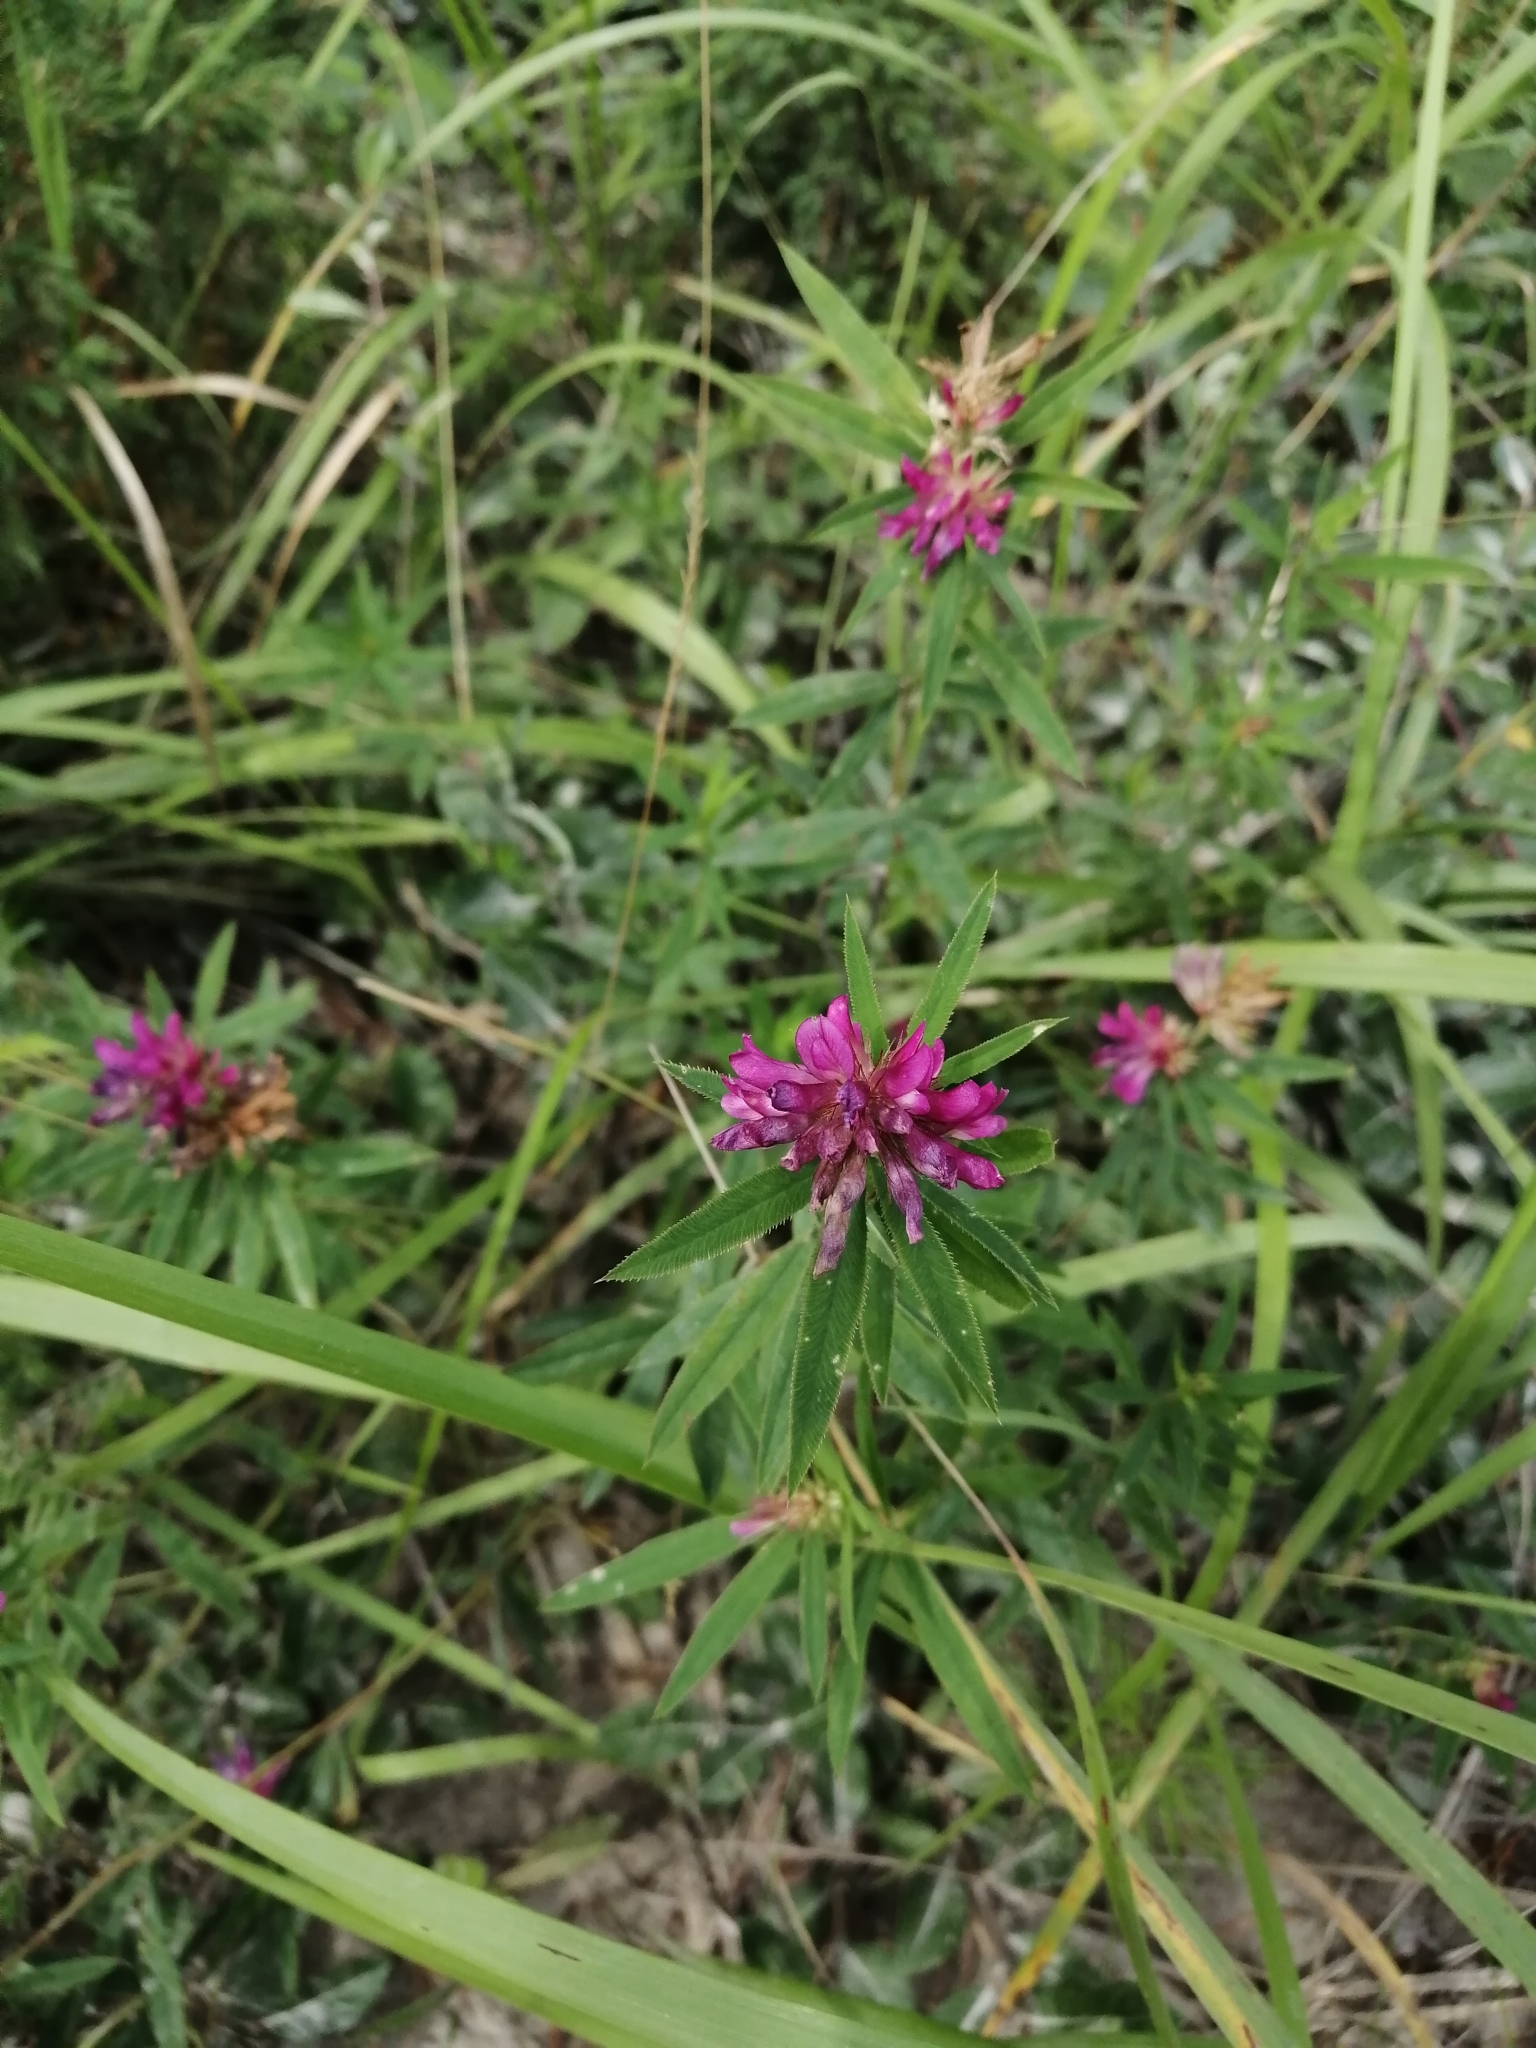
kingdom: Plantae
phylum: Tracheophyta
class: Magnoliopsida
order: Fabales
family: Fabaceae
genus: Trifolium
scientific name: Trifolium lupinaster
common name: Lupine clover
